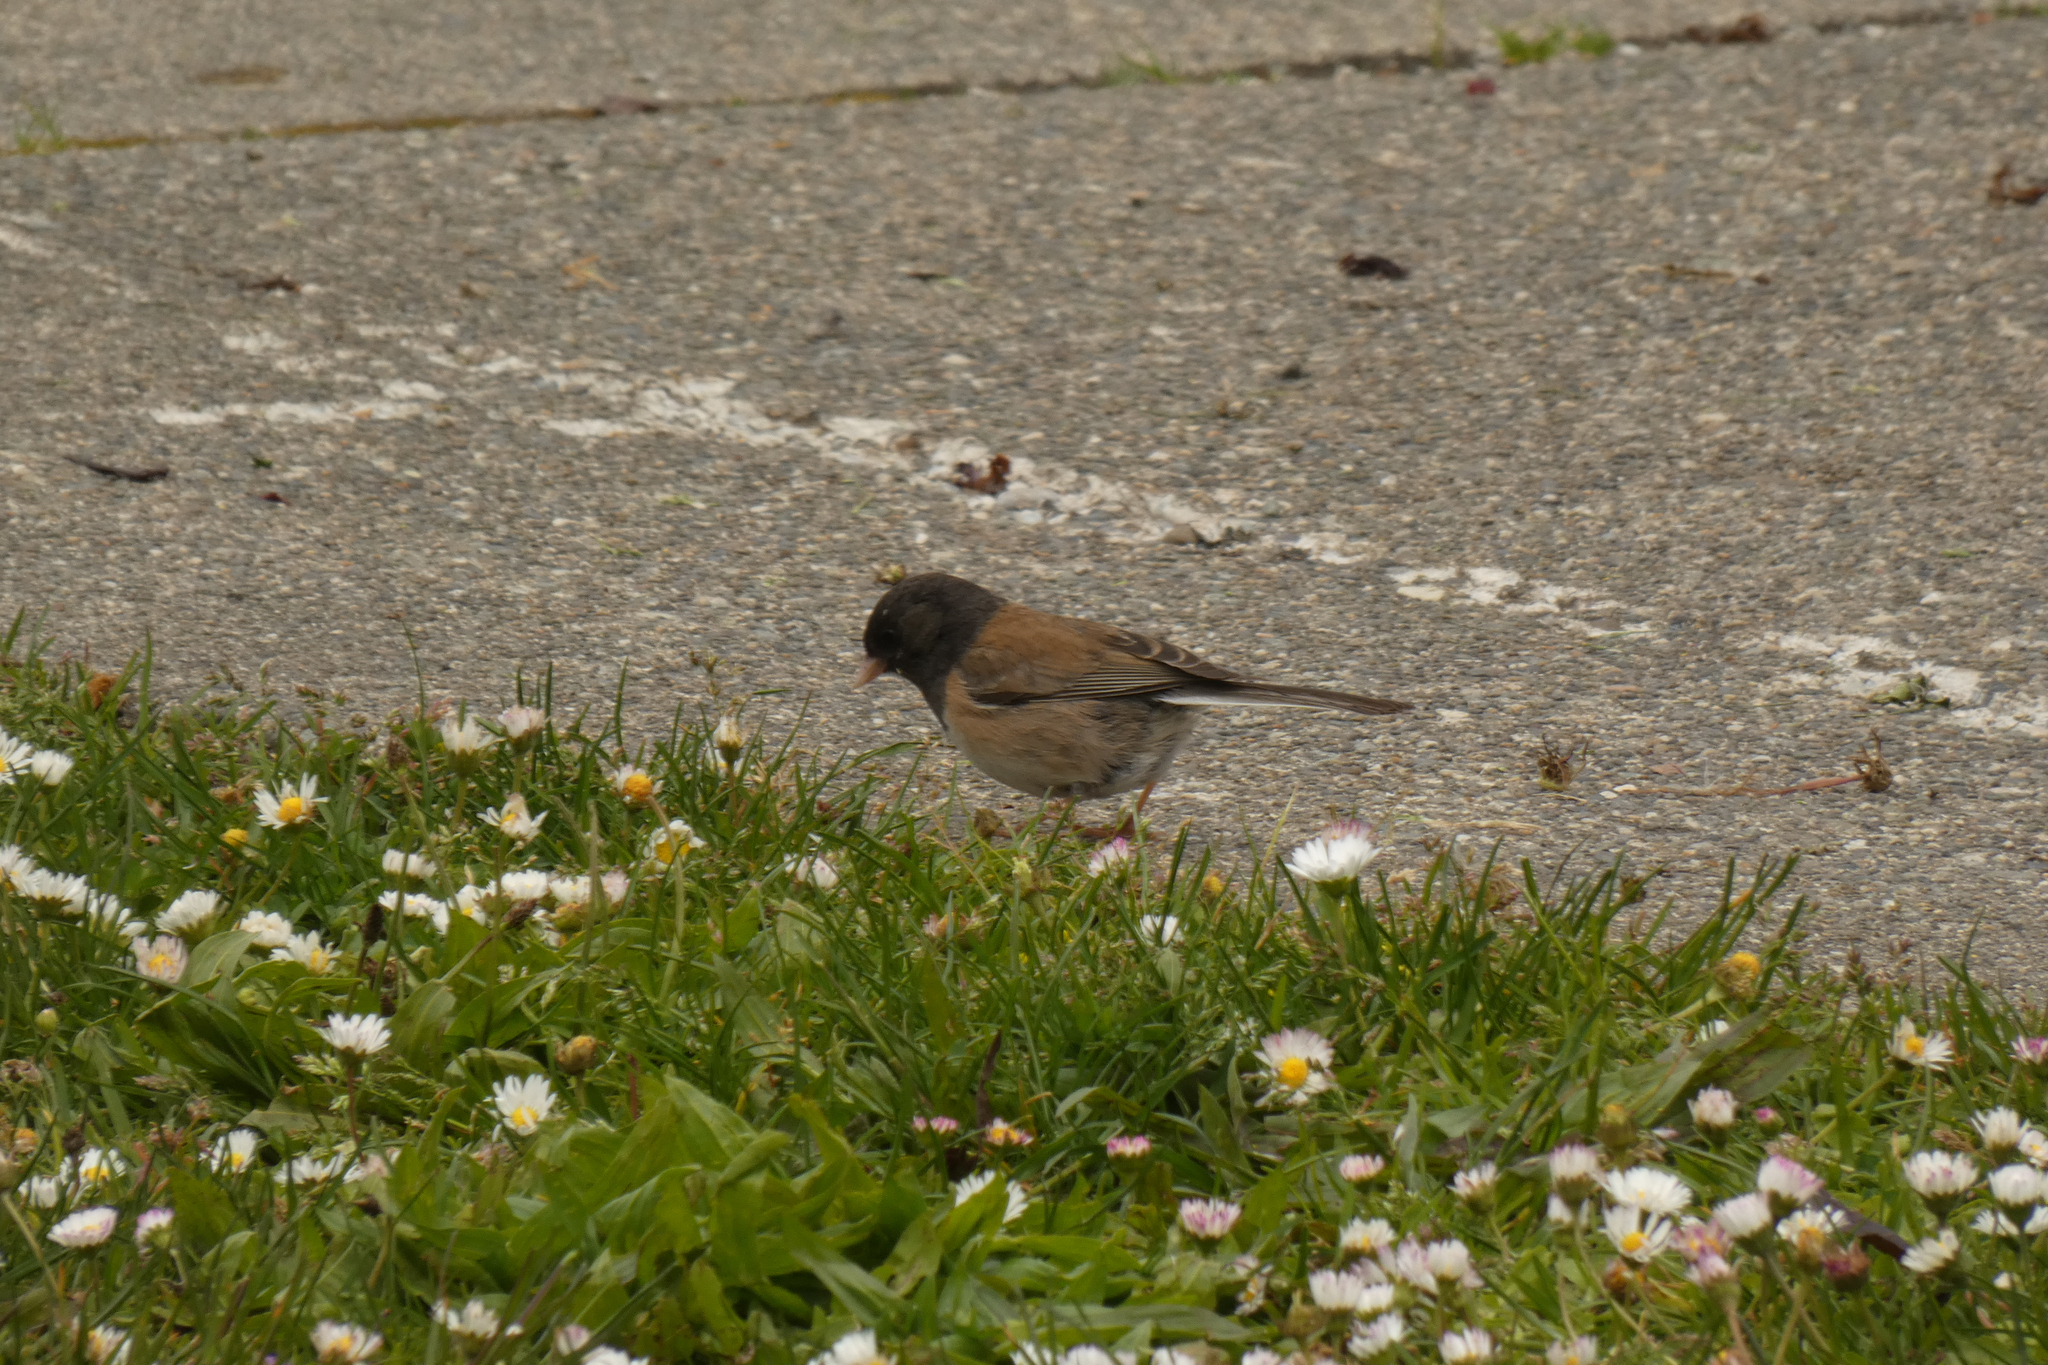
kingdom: Animalia
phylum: Chordata
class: Aves
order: Passeriformes
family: Passerellidae
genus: Junco
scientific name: Junco hyemalis
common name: Dark-eyed junco
